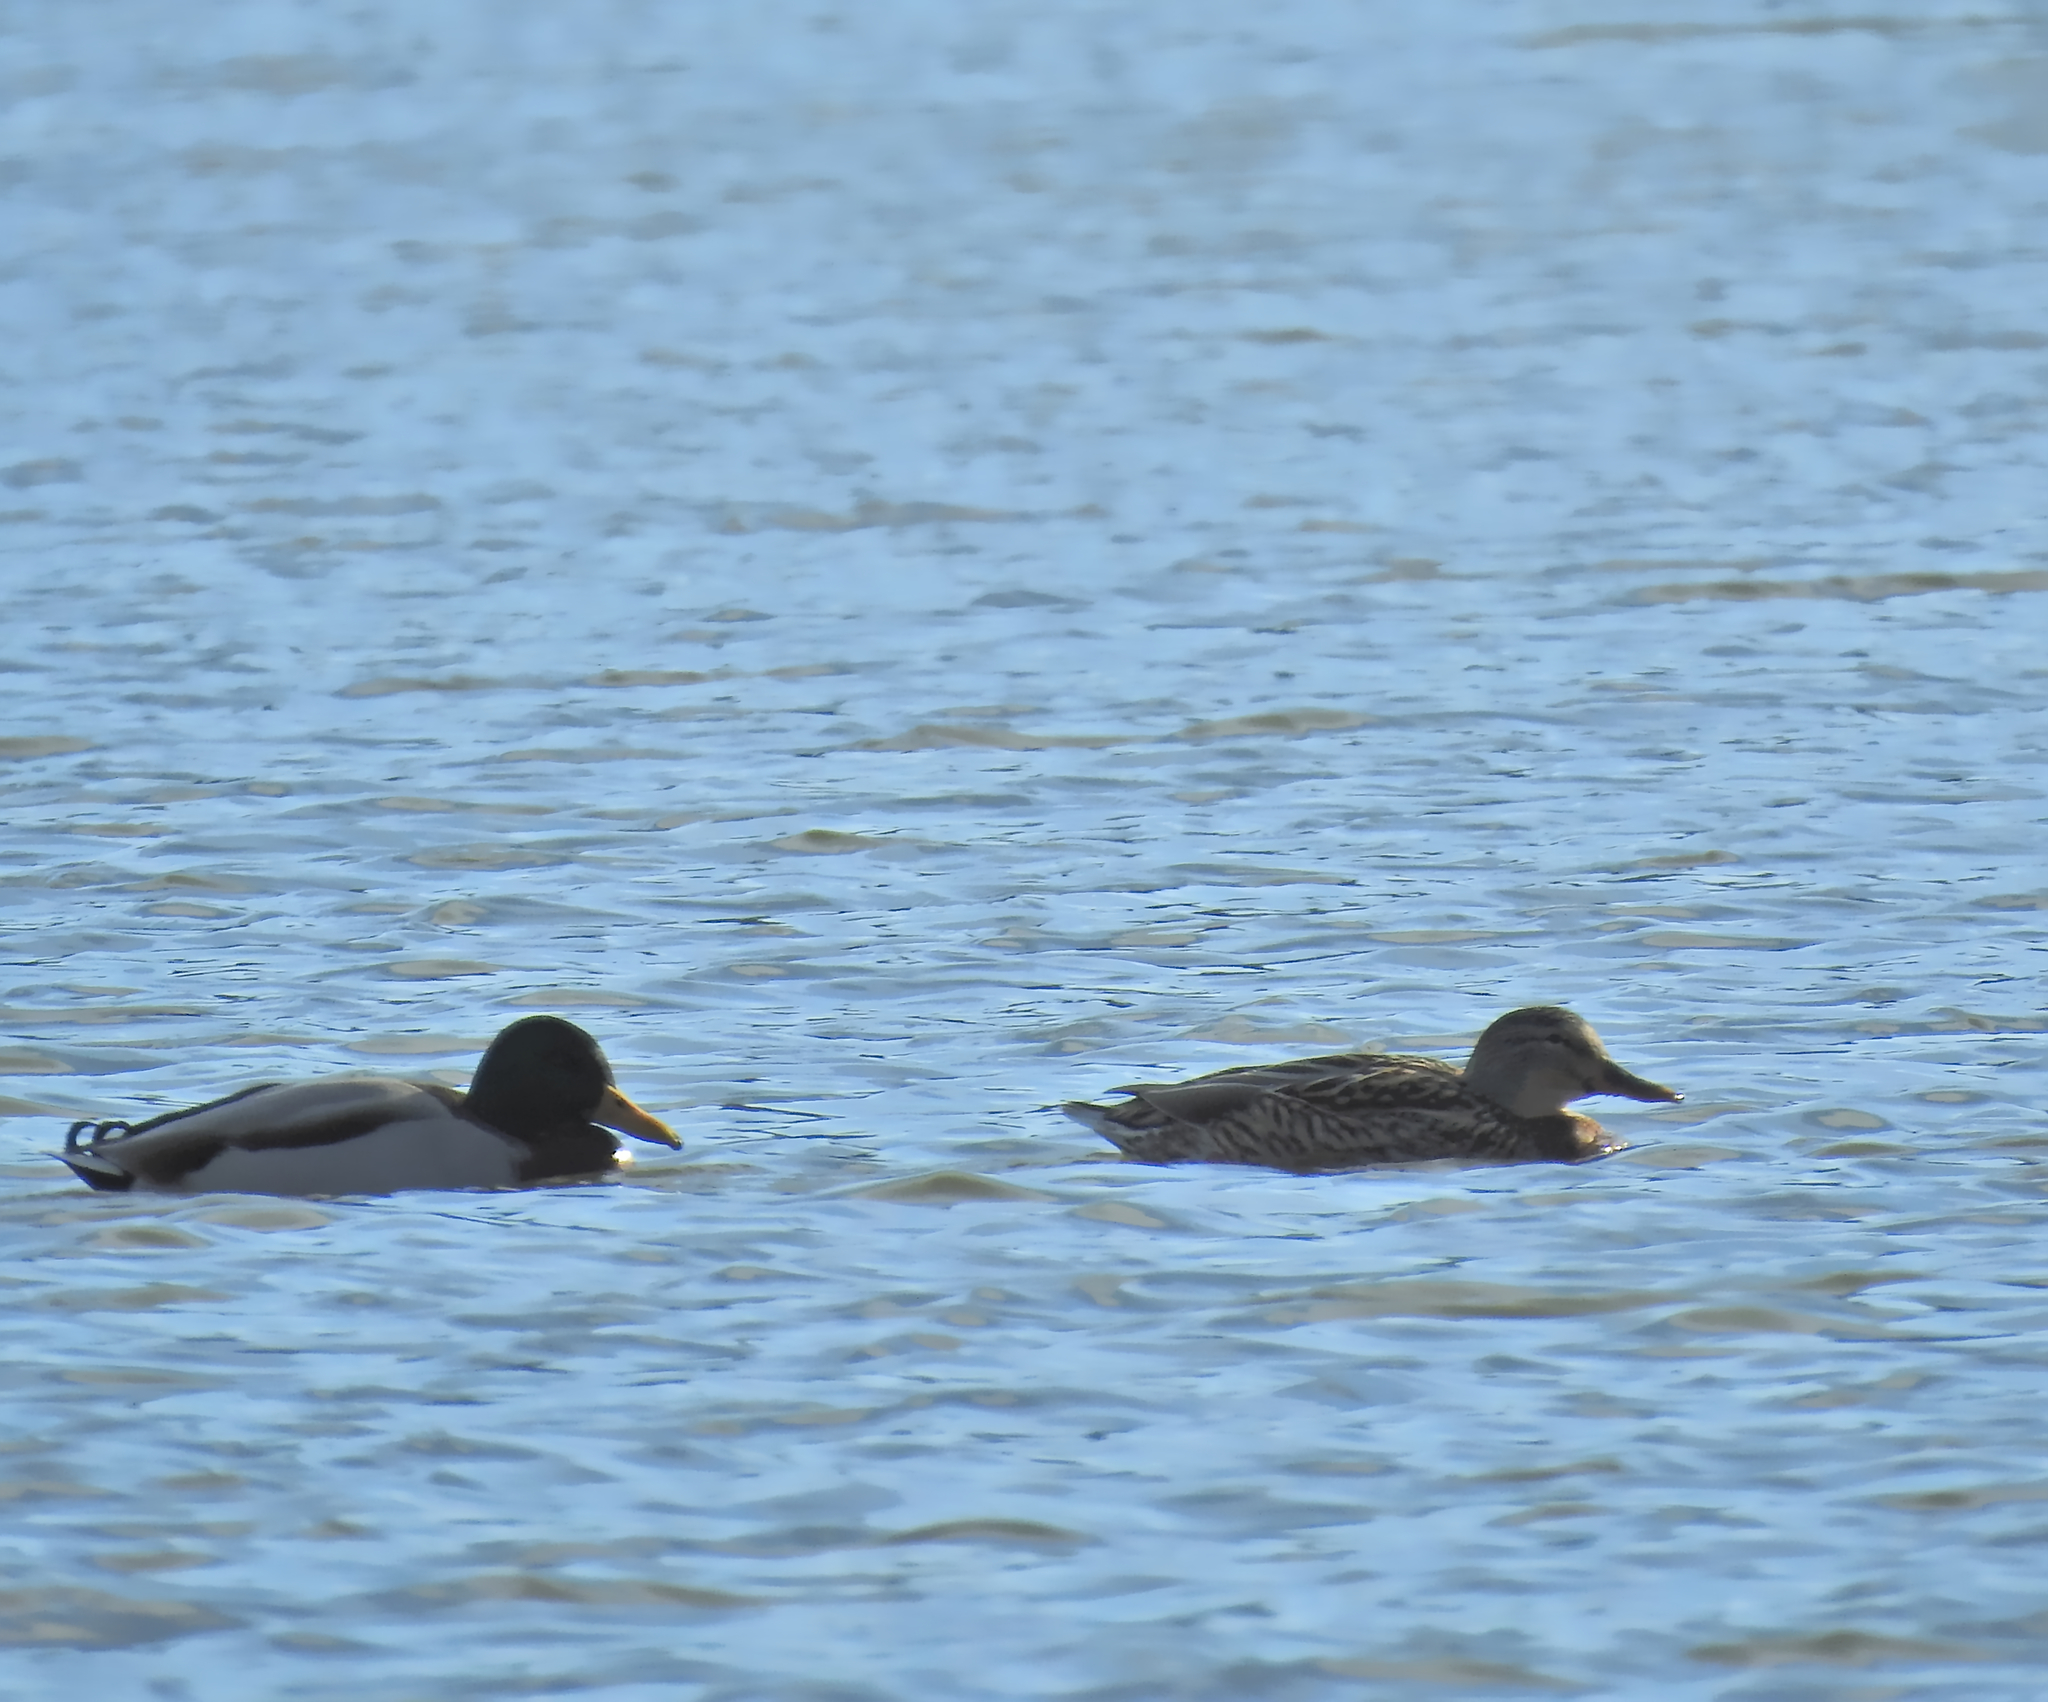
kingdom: Animalia
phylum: Chordata
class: Aves
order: Anseriformes
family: Anatidae
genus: Anas
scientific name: Anas platyrhynchos
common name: Mallard
